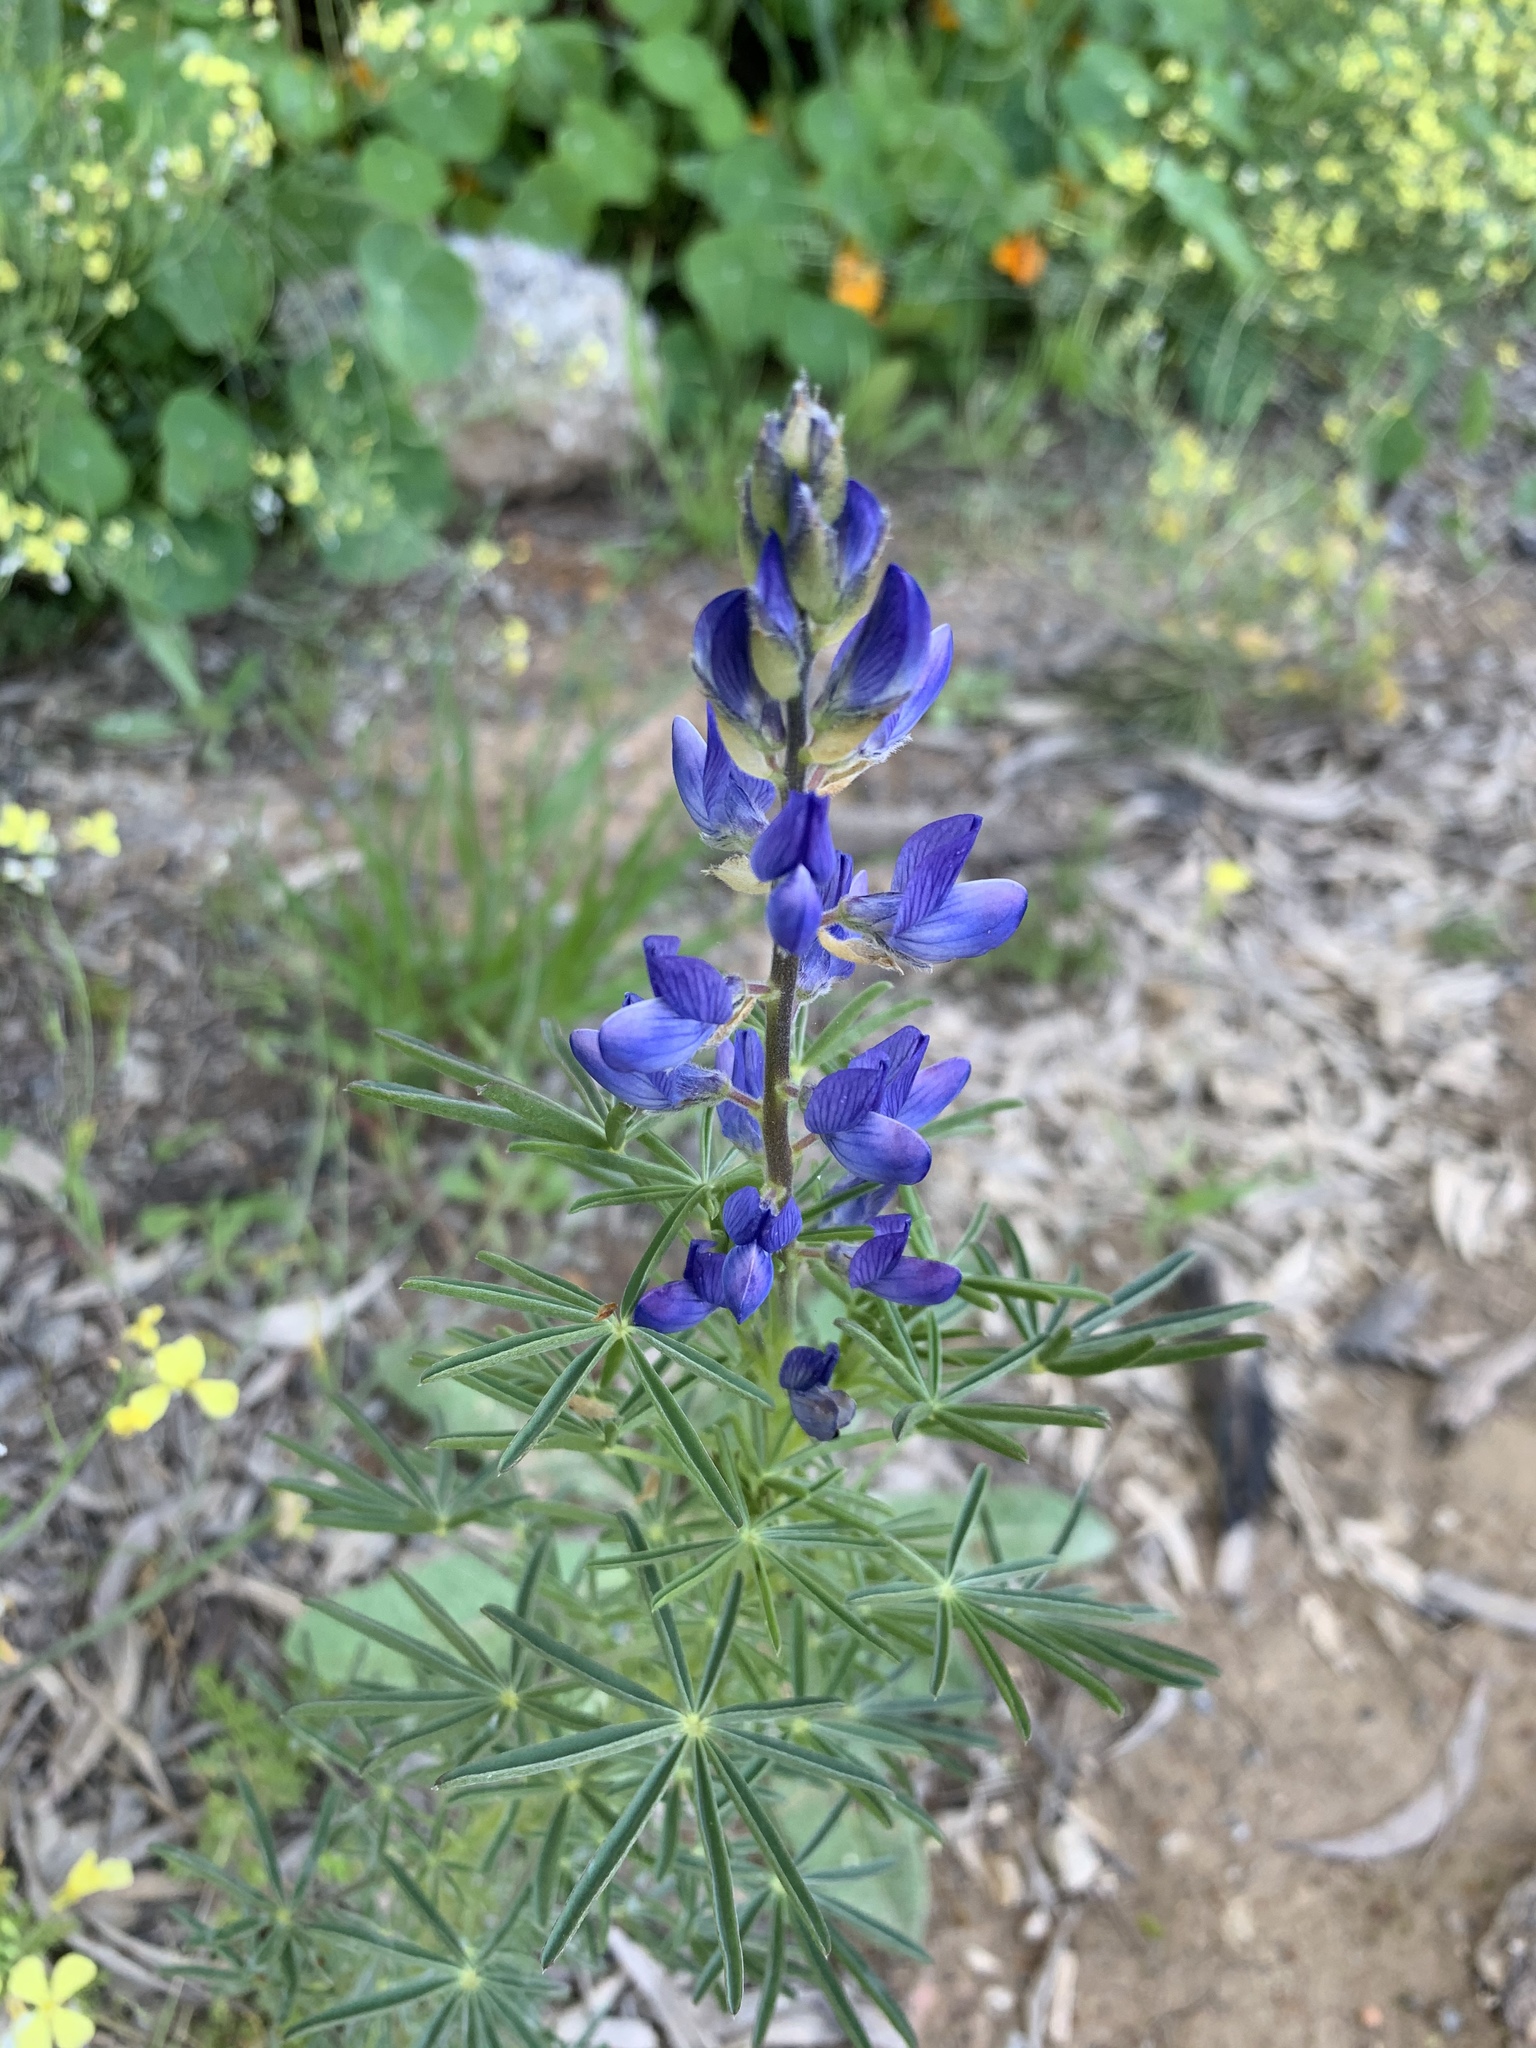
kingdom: Plantae
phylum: Tracheophyta
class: Magnoliopsida
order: Fabales
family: Fabaceae
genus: Lupinus
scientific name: Lupinus angustifolius
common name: Narrow-leaved lupin
